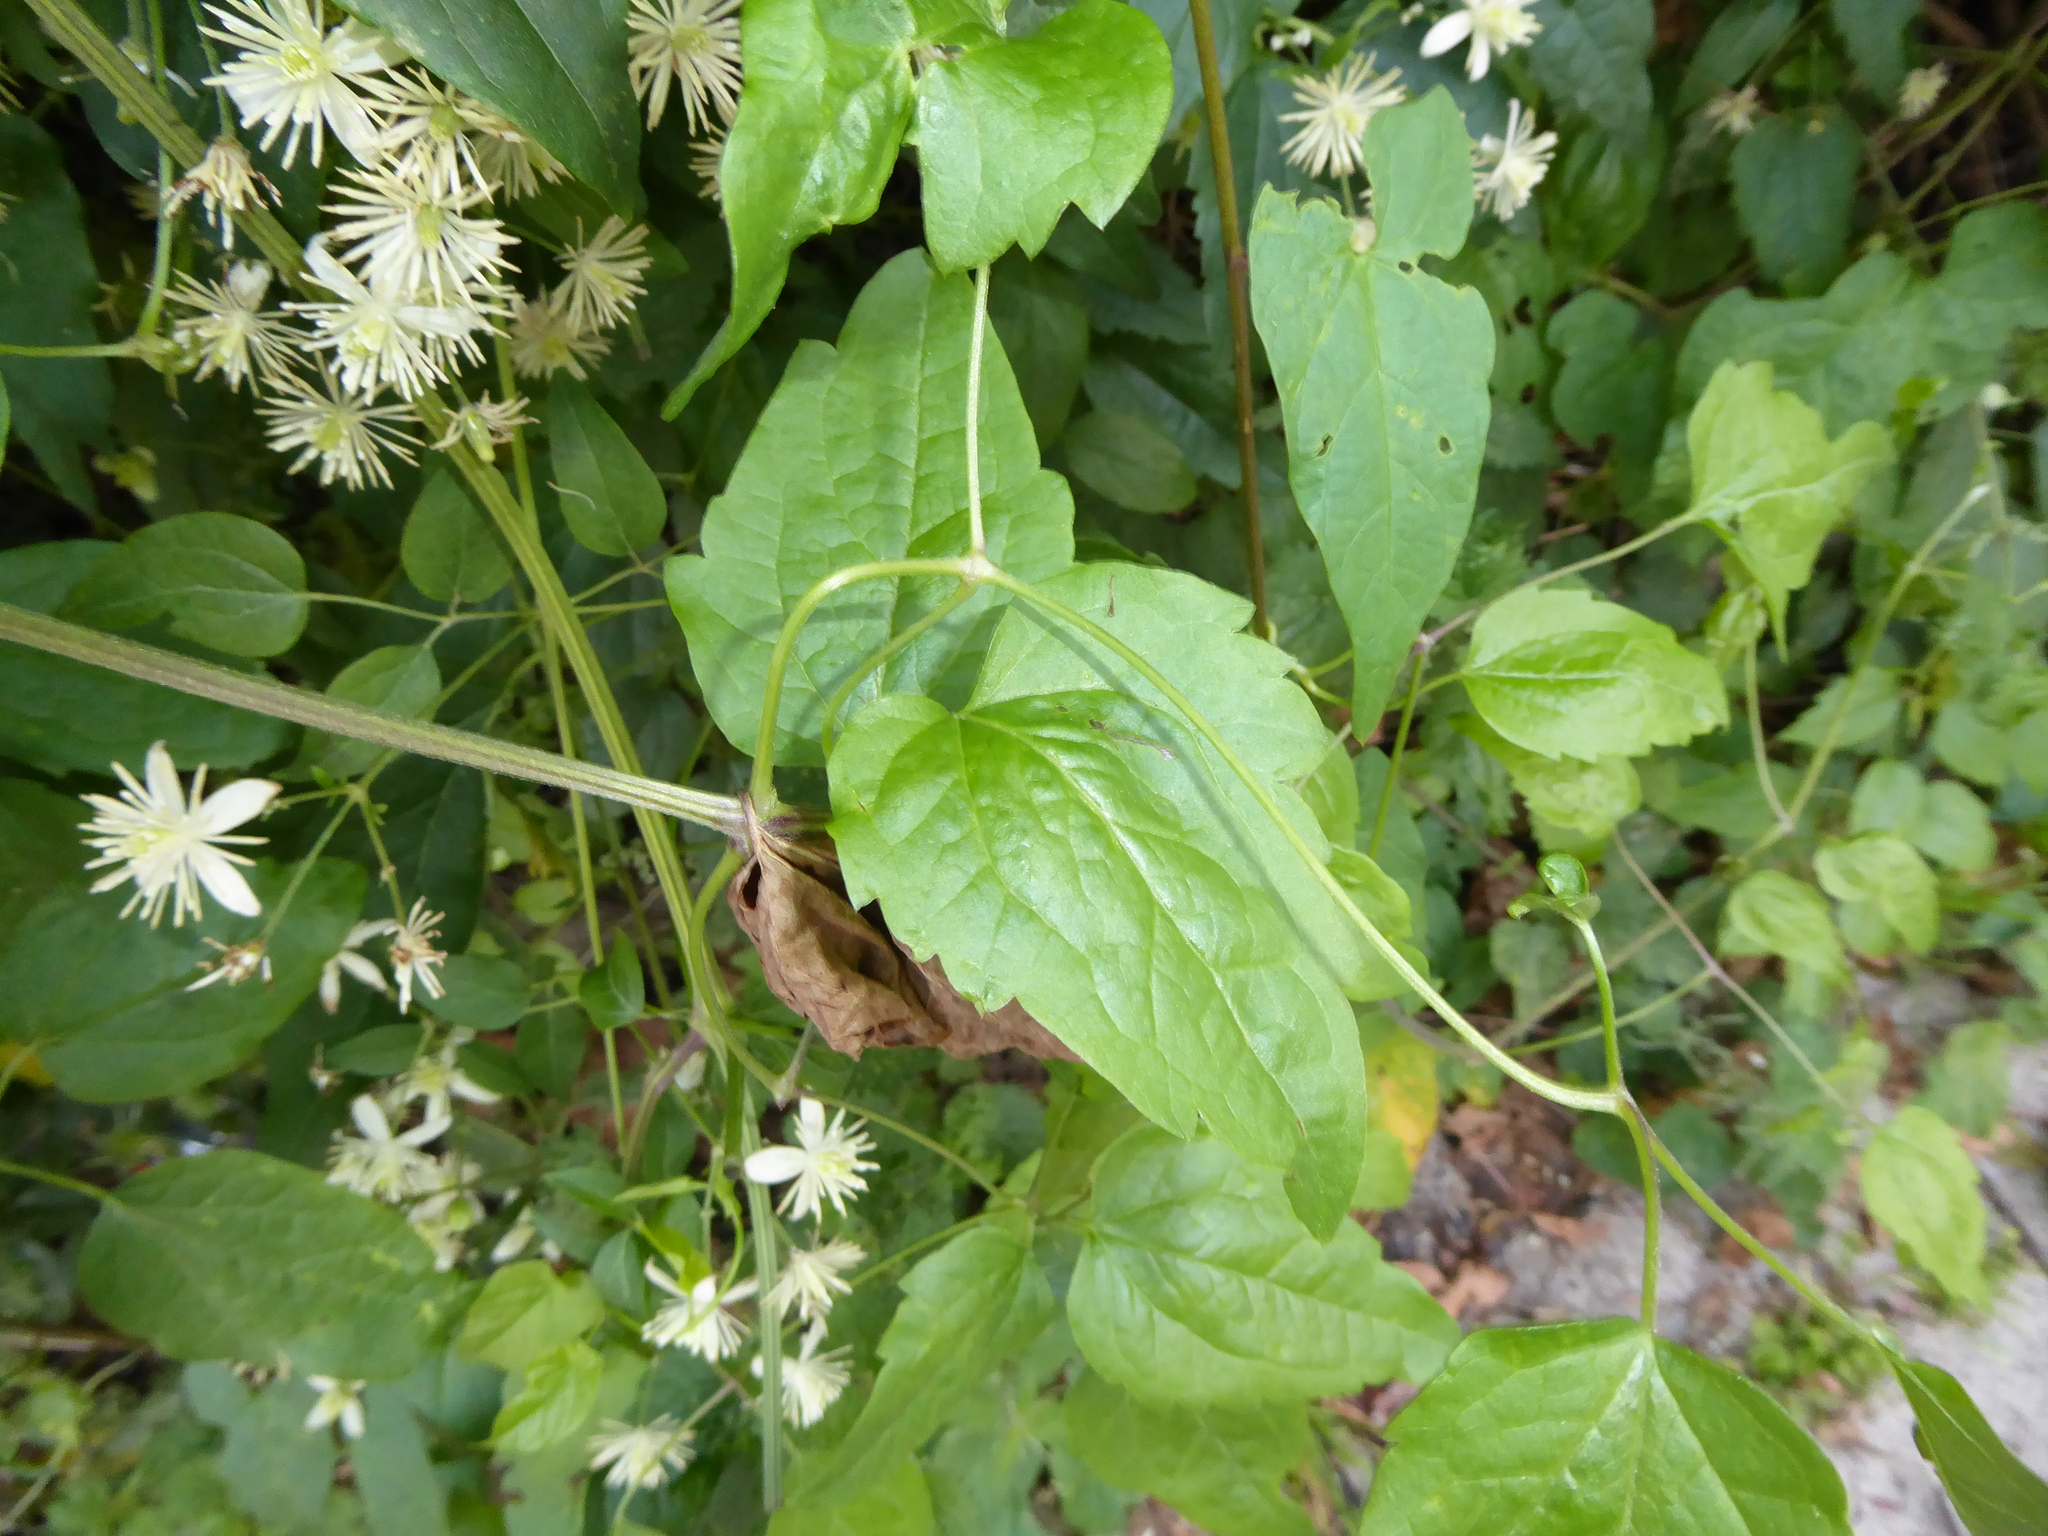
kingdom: Plantae
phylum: Tracheophyta
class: Magnoliopsida
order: Ranunculales
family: Ranunculaceae
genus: Clematis
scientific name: Clematis vitalba
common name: Evergreen clematis
